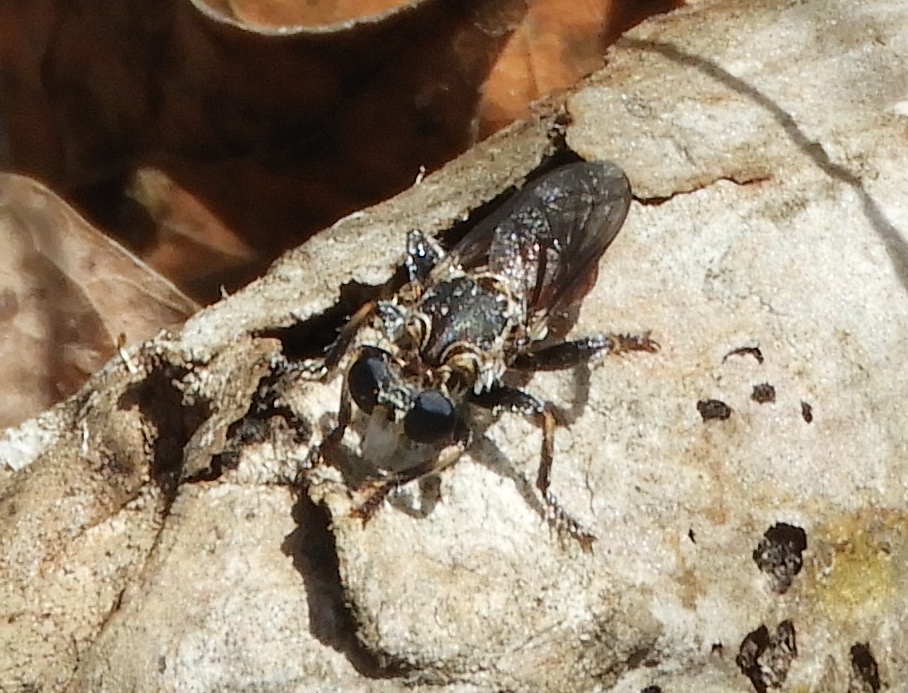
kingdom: Animalia
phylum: Arthropoda
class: Insecta
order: Diptera
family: Asilidae
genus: Cerotainiops
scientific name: Cerotainiops
